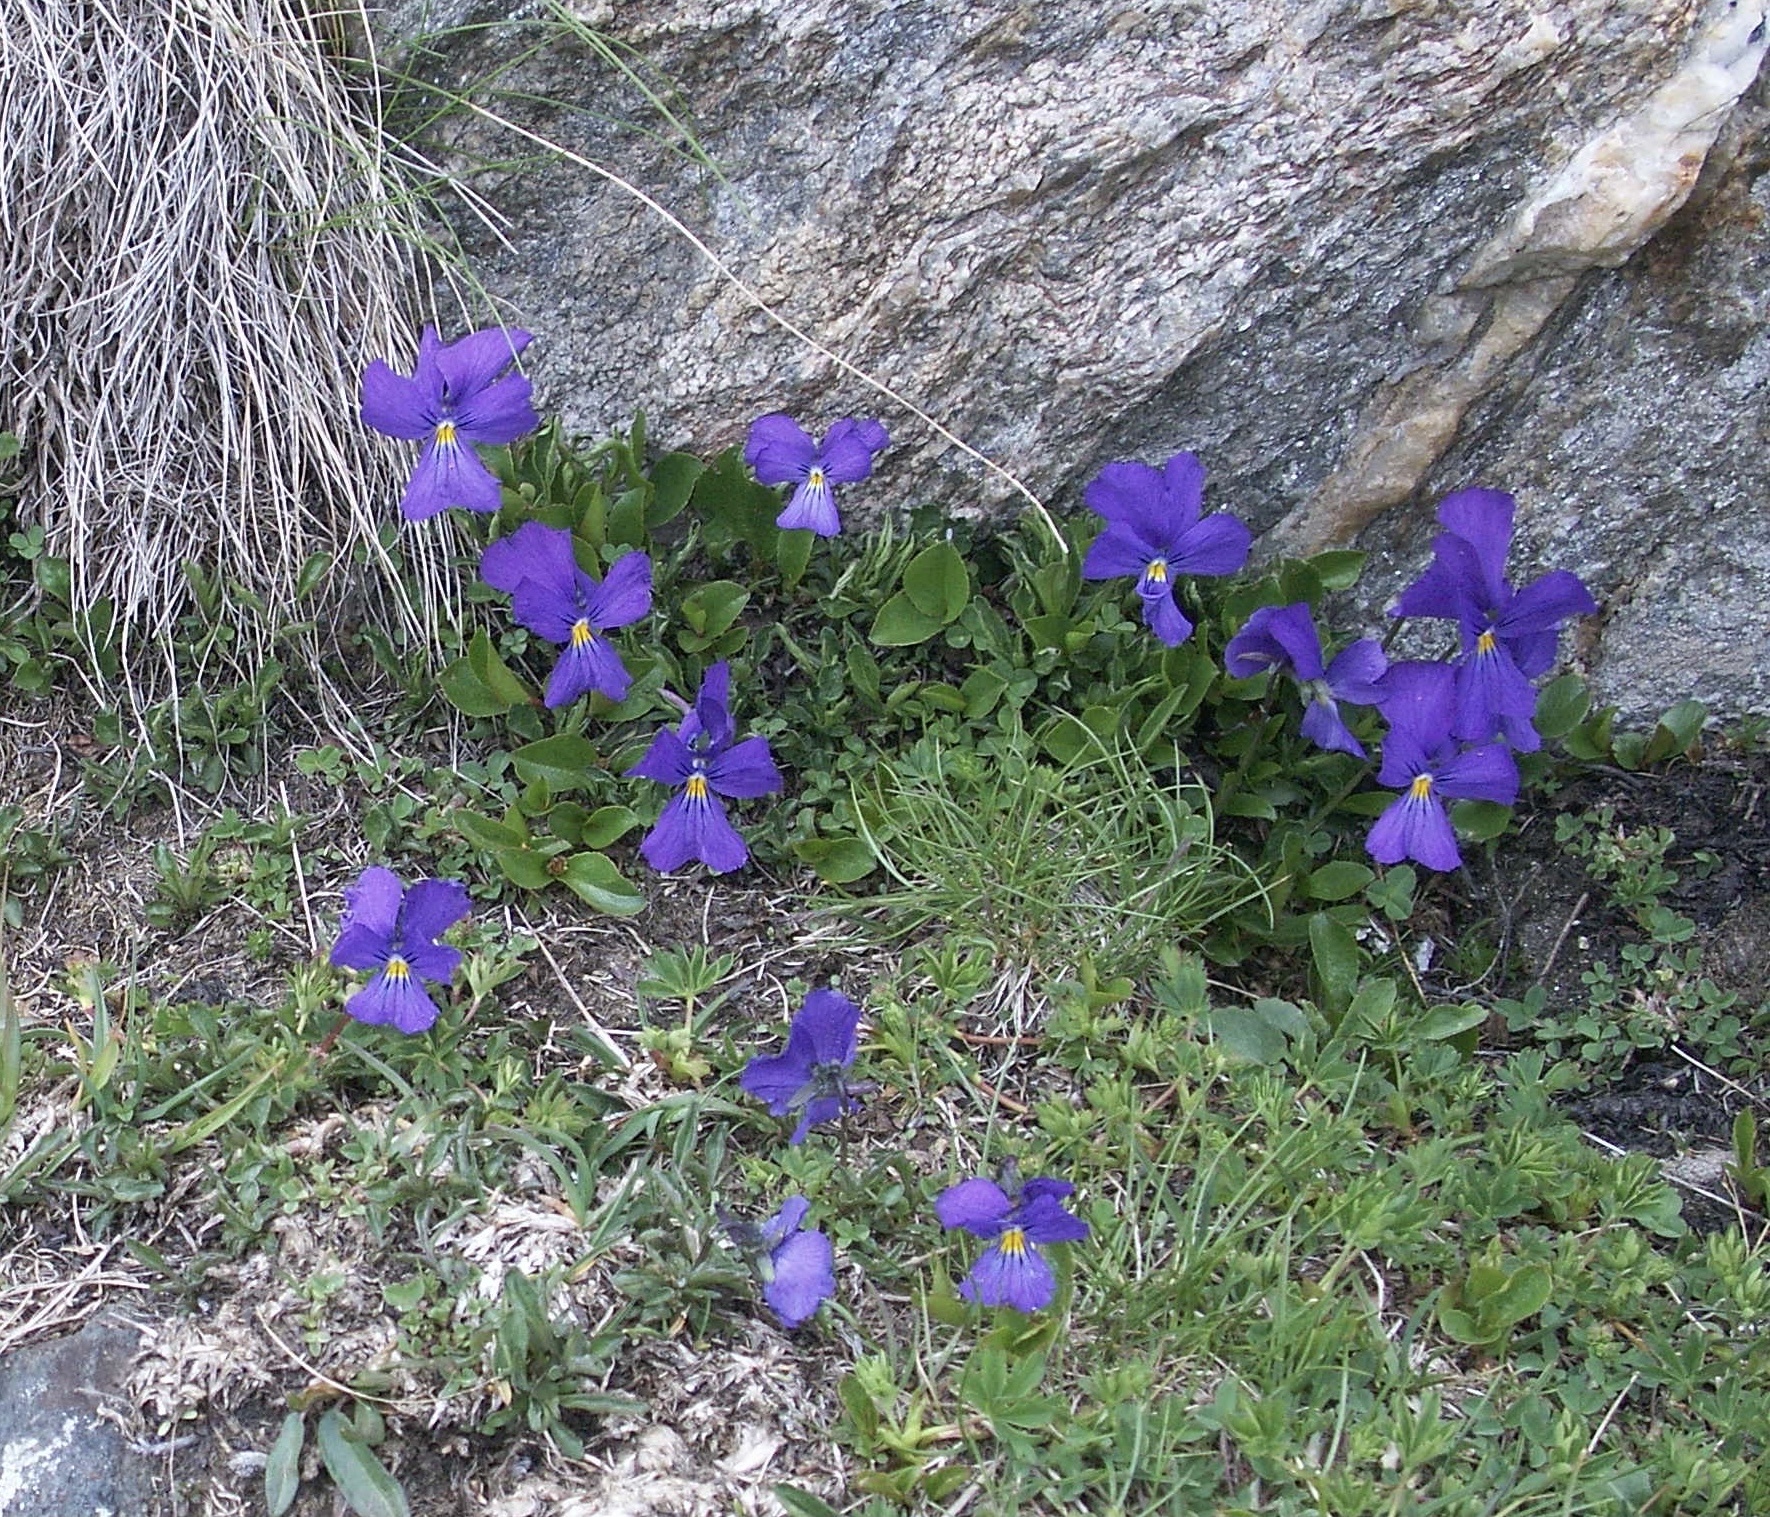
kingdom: Plantae
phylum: Tracheophyta
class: Magnoliopsida
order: Malpighiales
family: Violaceae
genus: Viola
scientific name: Viola calcarata
